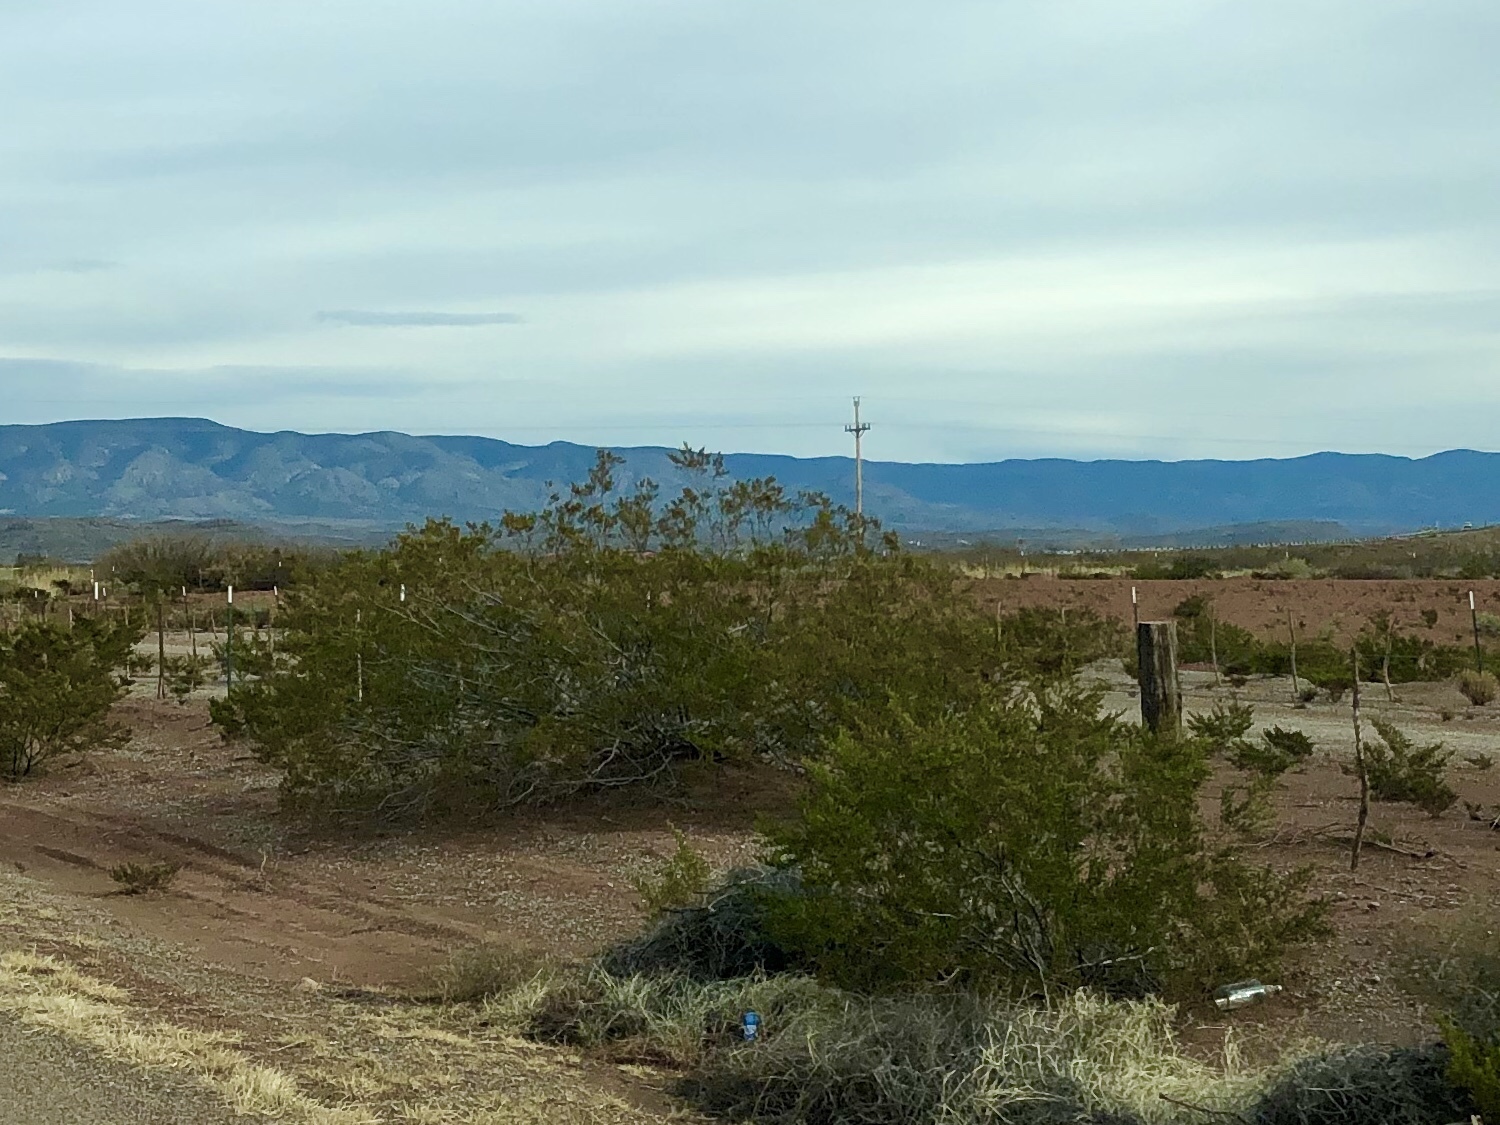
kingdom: Plantae
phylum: Tracheophyta
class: Magnoliopsida
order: Zygophyllales
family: Zygophyllaceae
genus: Larrea
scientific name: Larrea tridentata
